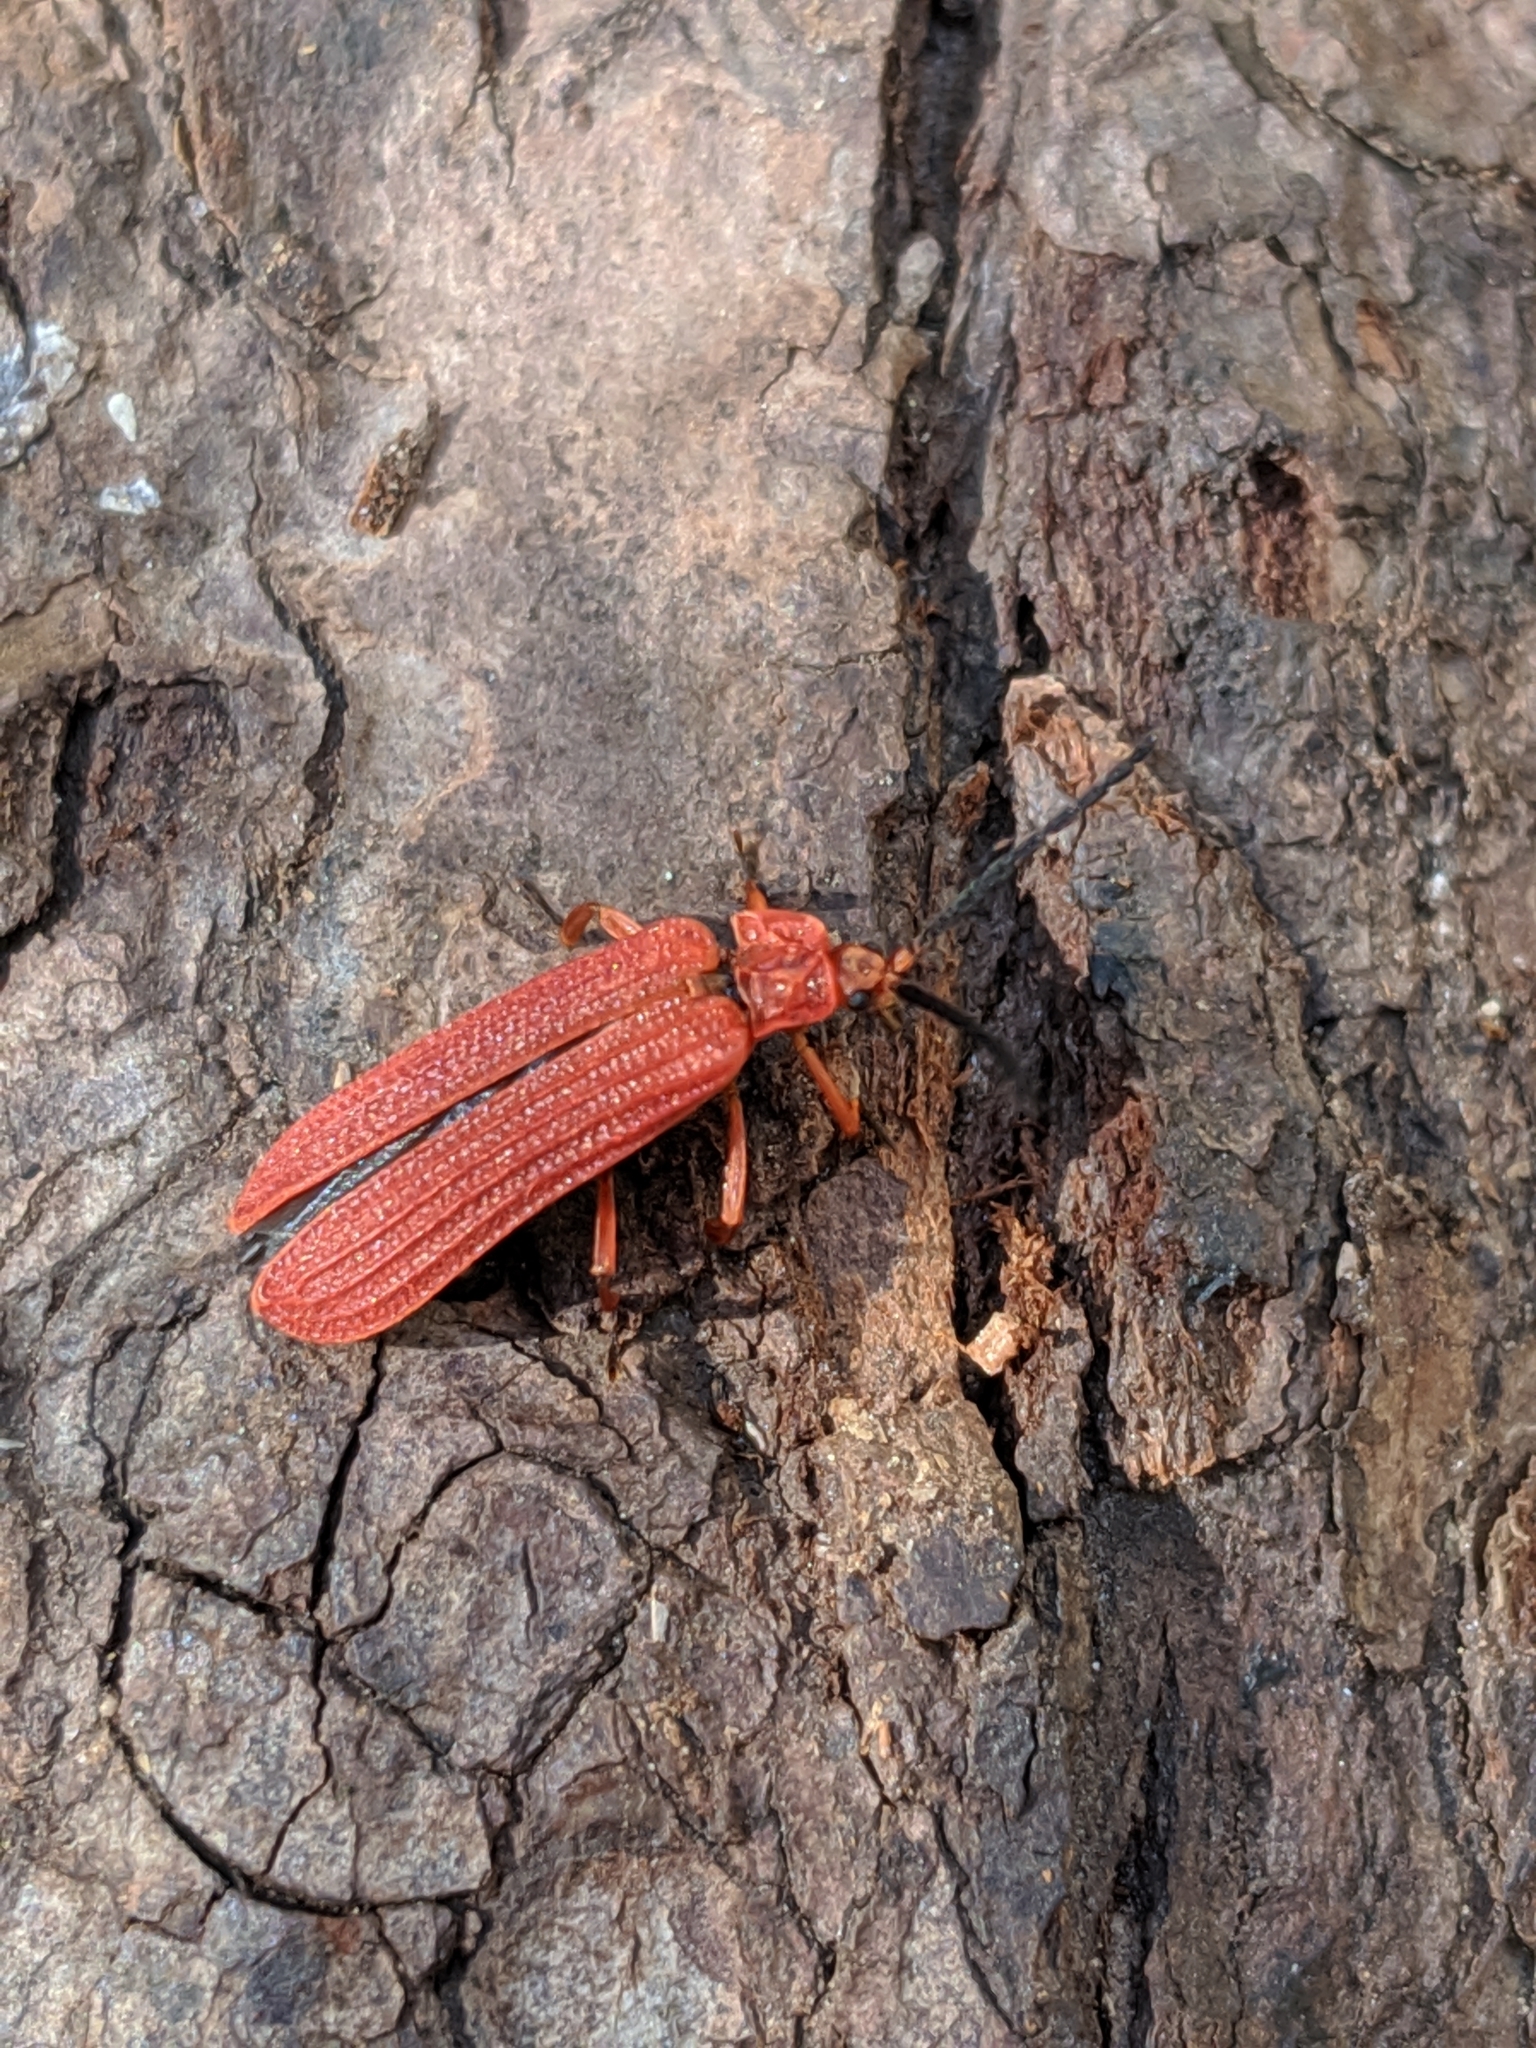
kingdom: Animalia
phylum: Arthropoda
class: Insecta
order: Coleoptera
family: Lycidae
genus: Punicealis
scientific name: Punicealis hamata
